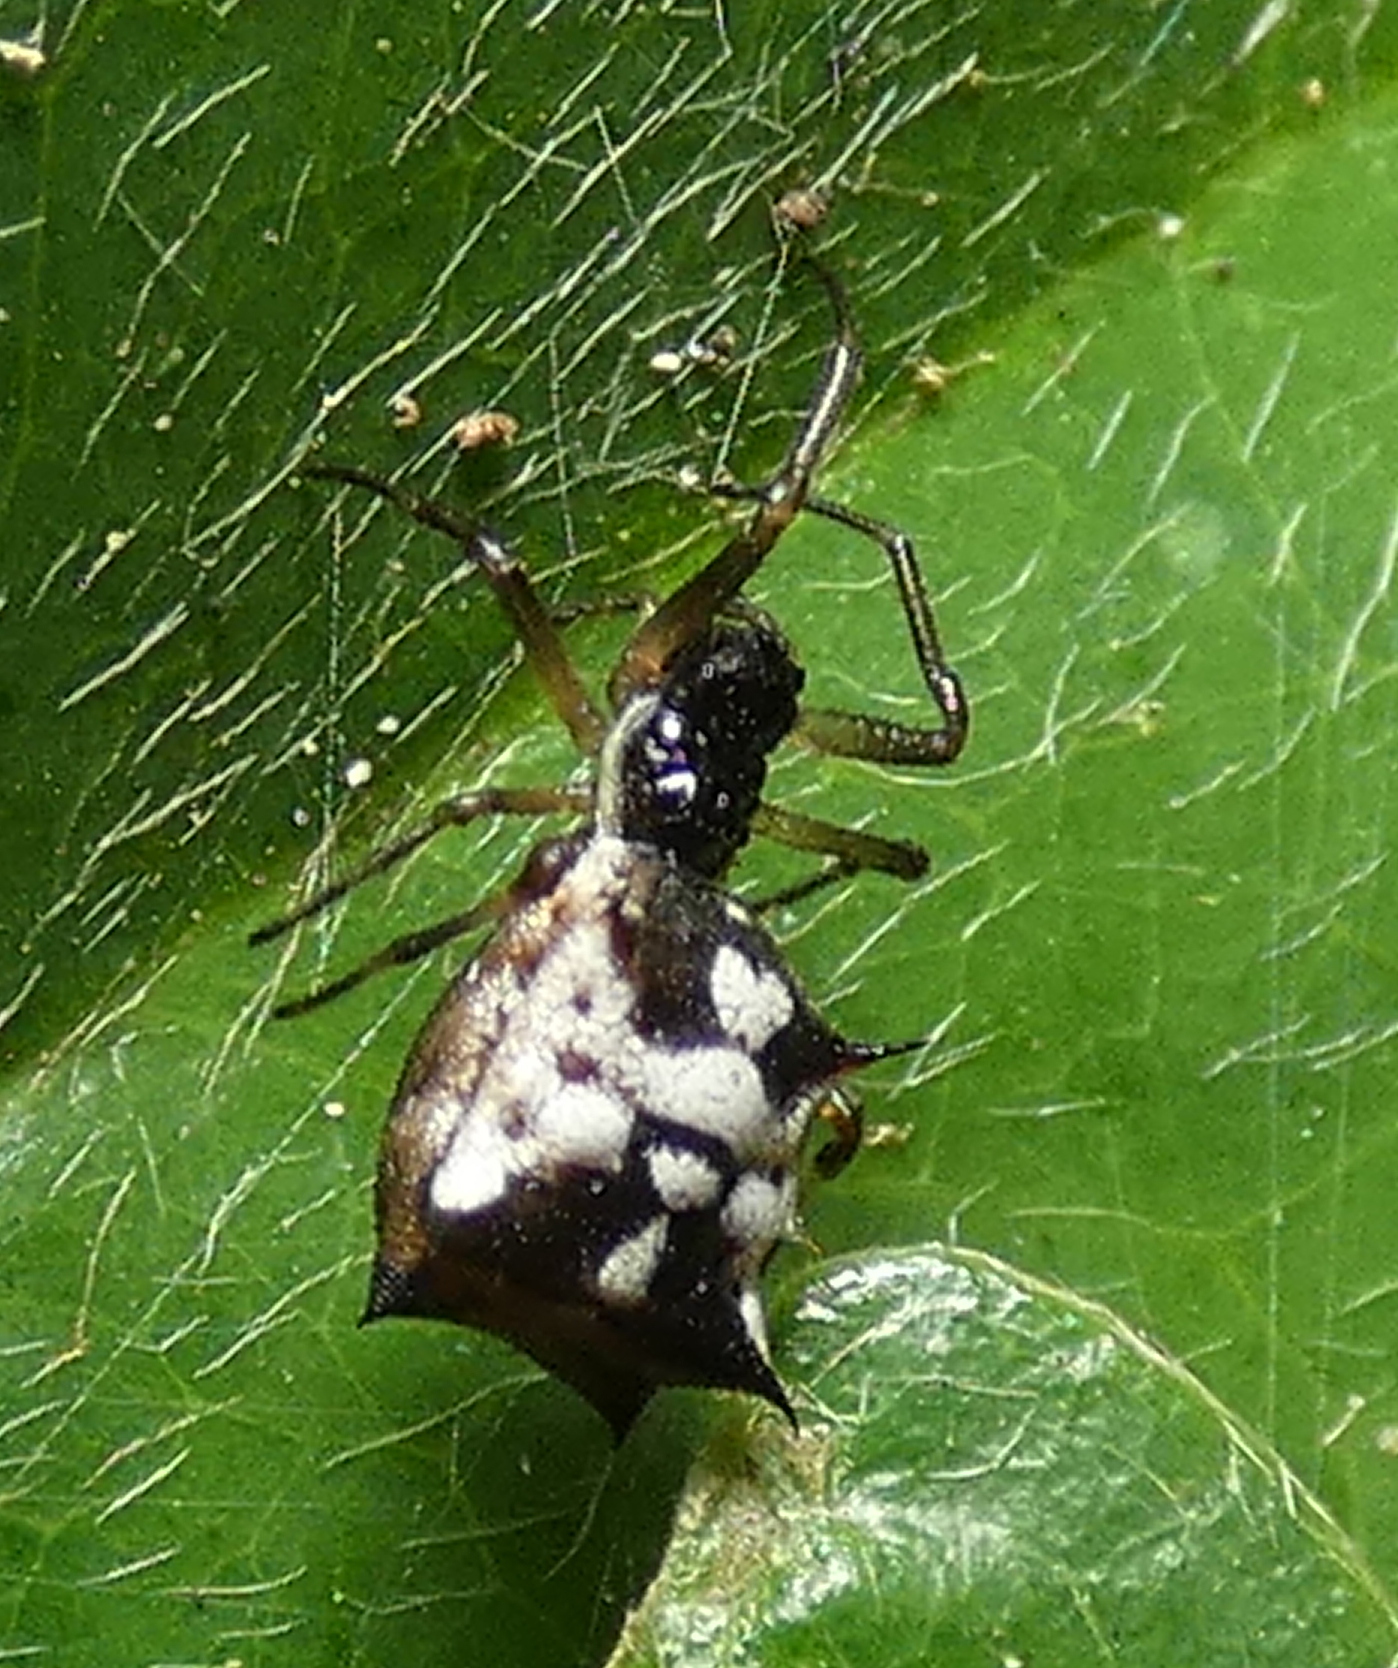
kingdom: Animalia
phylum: Arthropoda
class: Arachnida
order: Araneae
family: Araneidae
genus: Micrathena
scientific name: Micrathena picta
